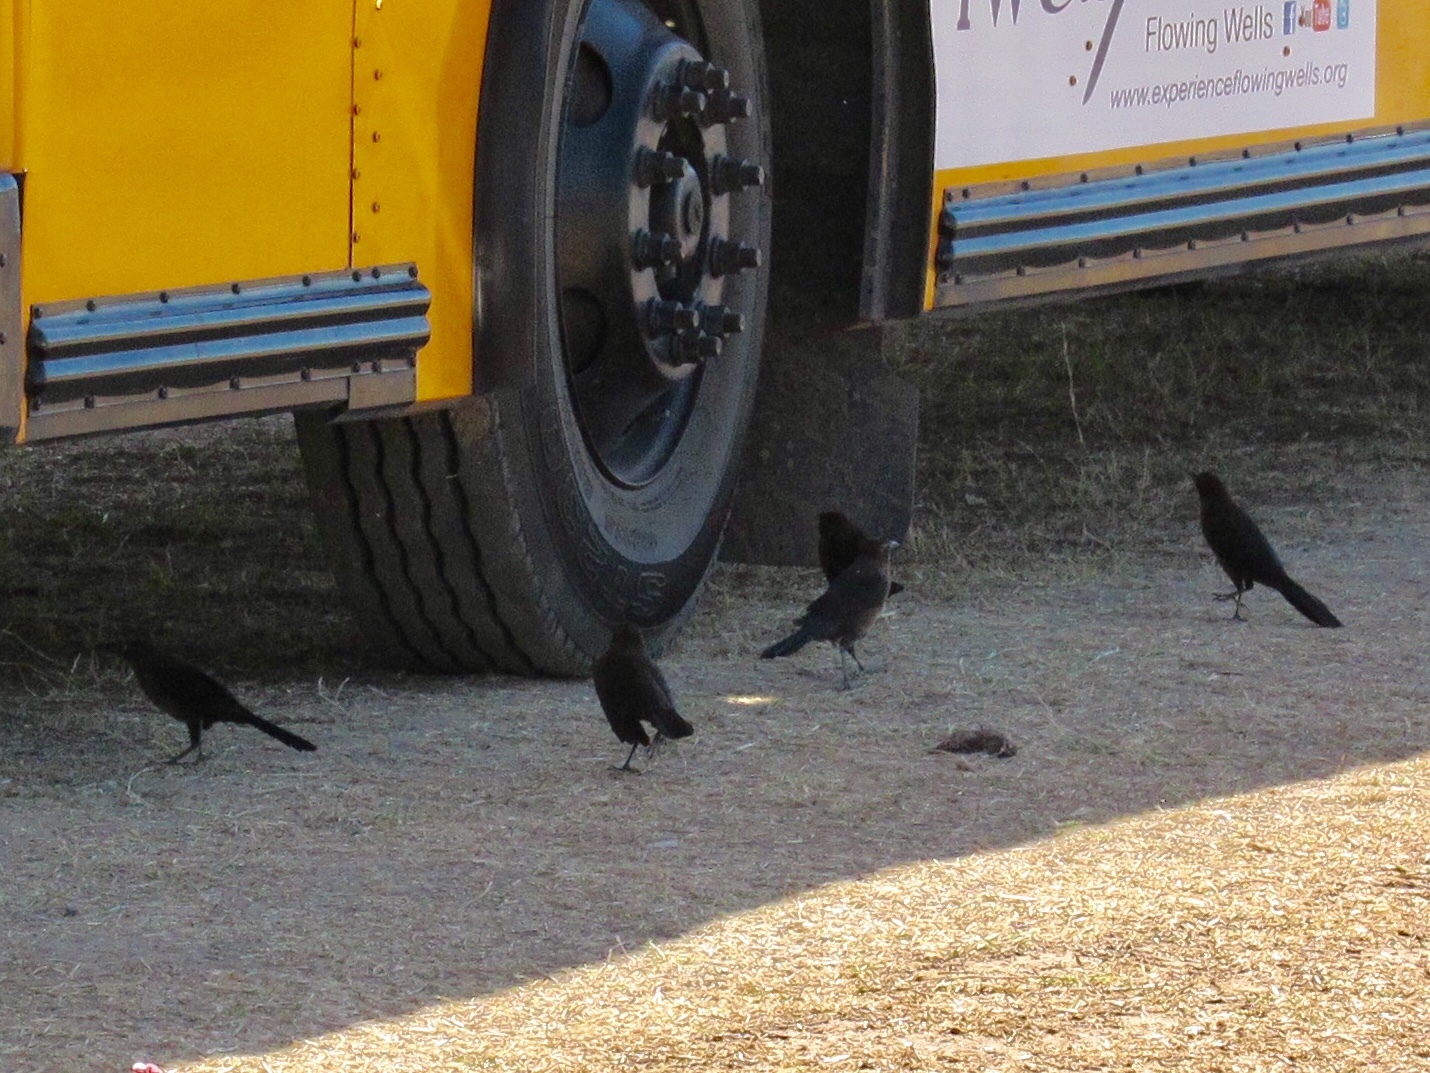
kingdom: Animalia
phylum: Chordata
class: Aves
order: Passeriformes
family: Icteridae
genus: Quiscalus
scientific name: Quiscalus mexicanus
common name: Great-tailed grackle
